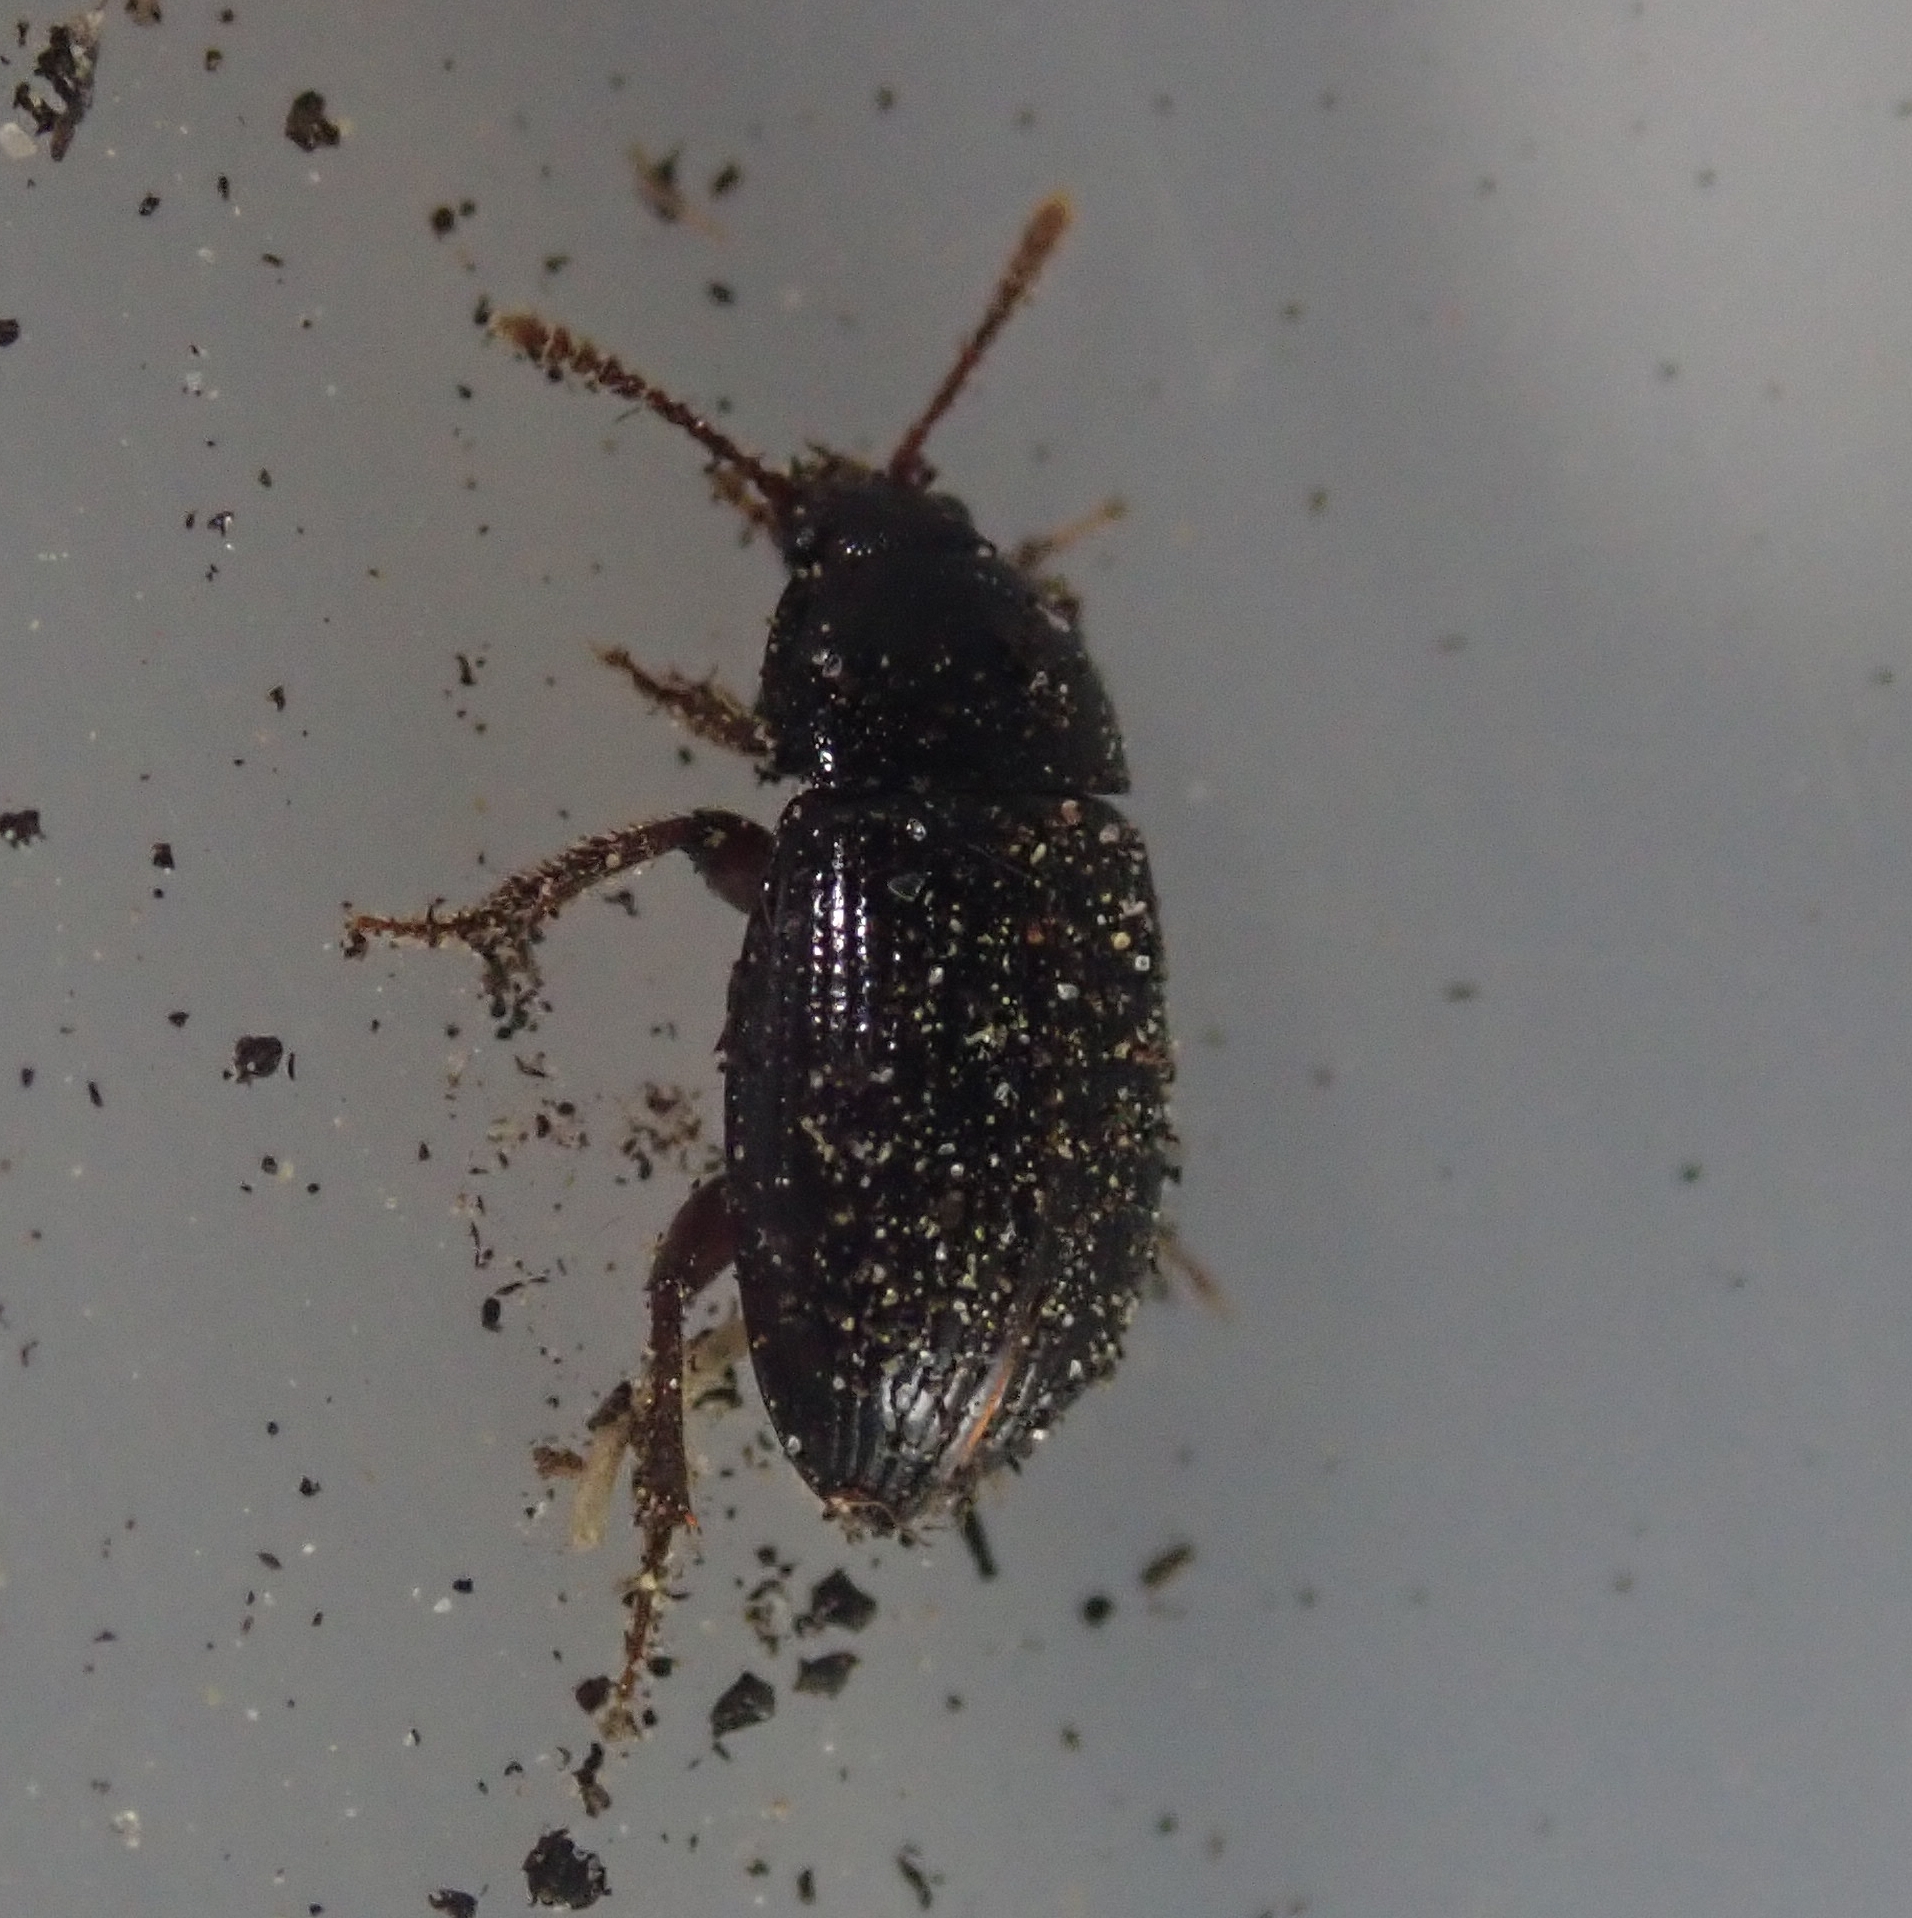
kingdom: Animalia
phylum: Arthropoda
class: Insecta
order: Coleoptera
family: Agyrtidae
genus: Agyrtes
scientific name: Agyrtes bicolor
